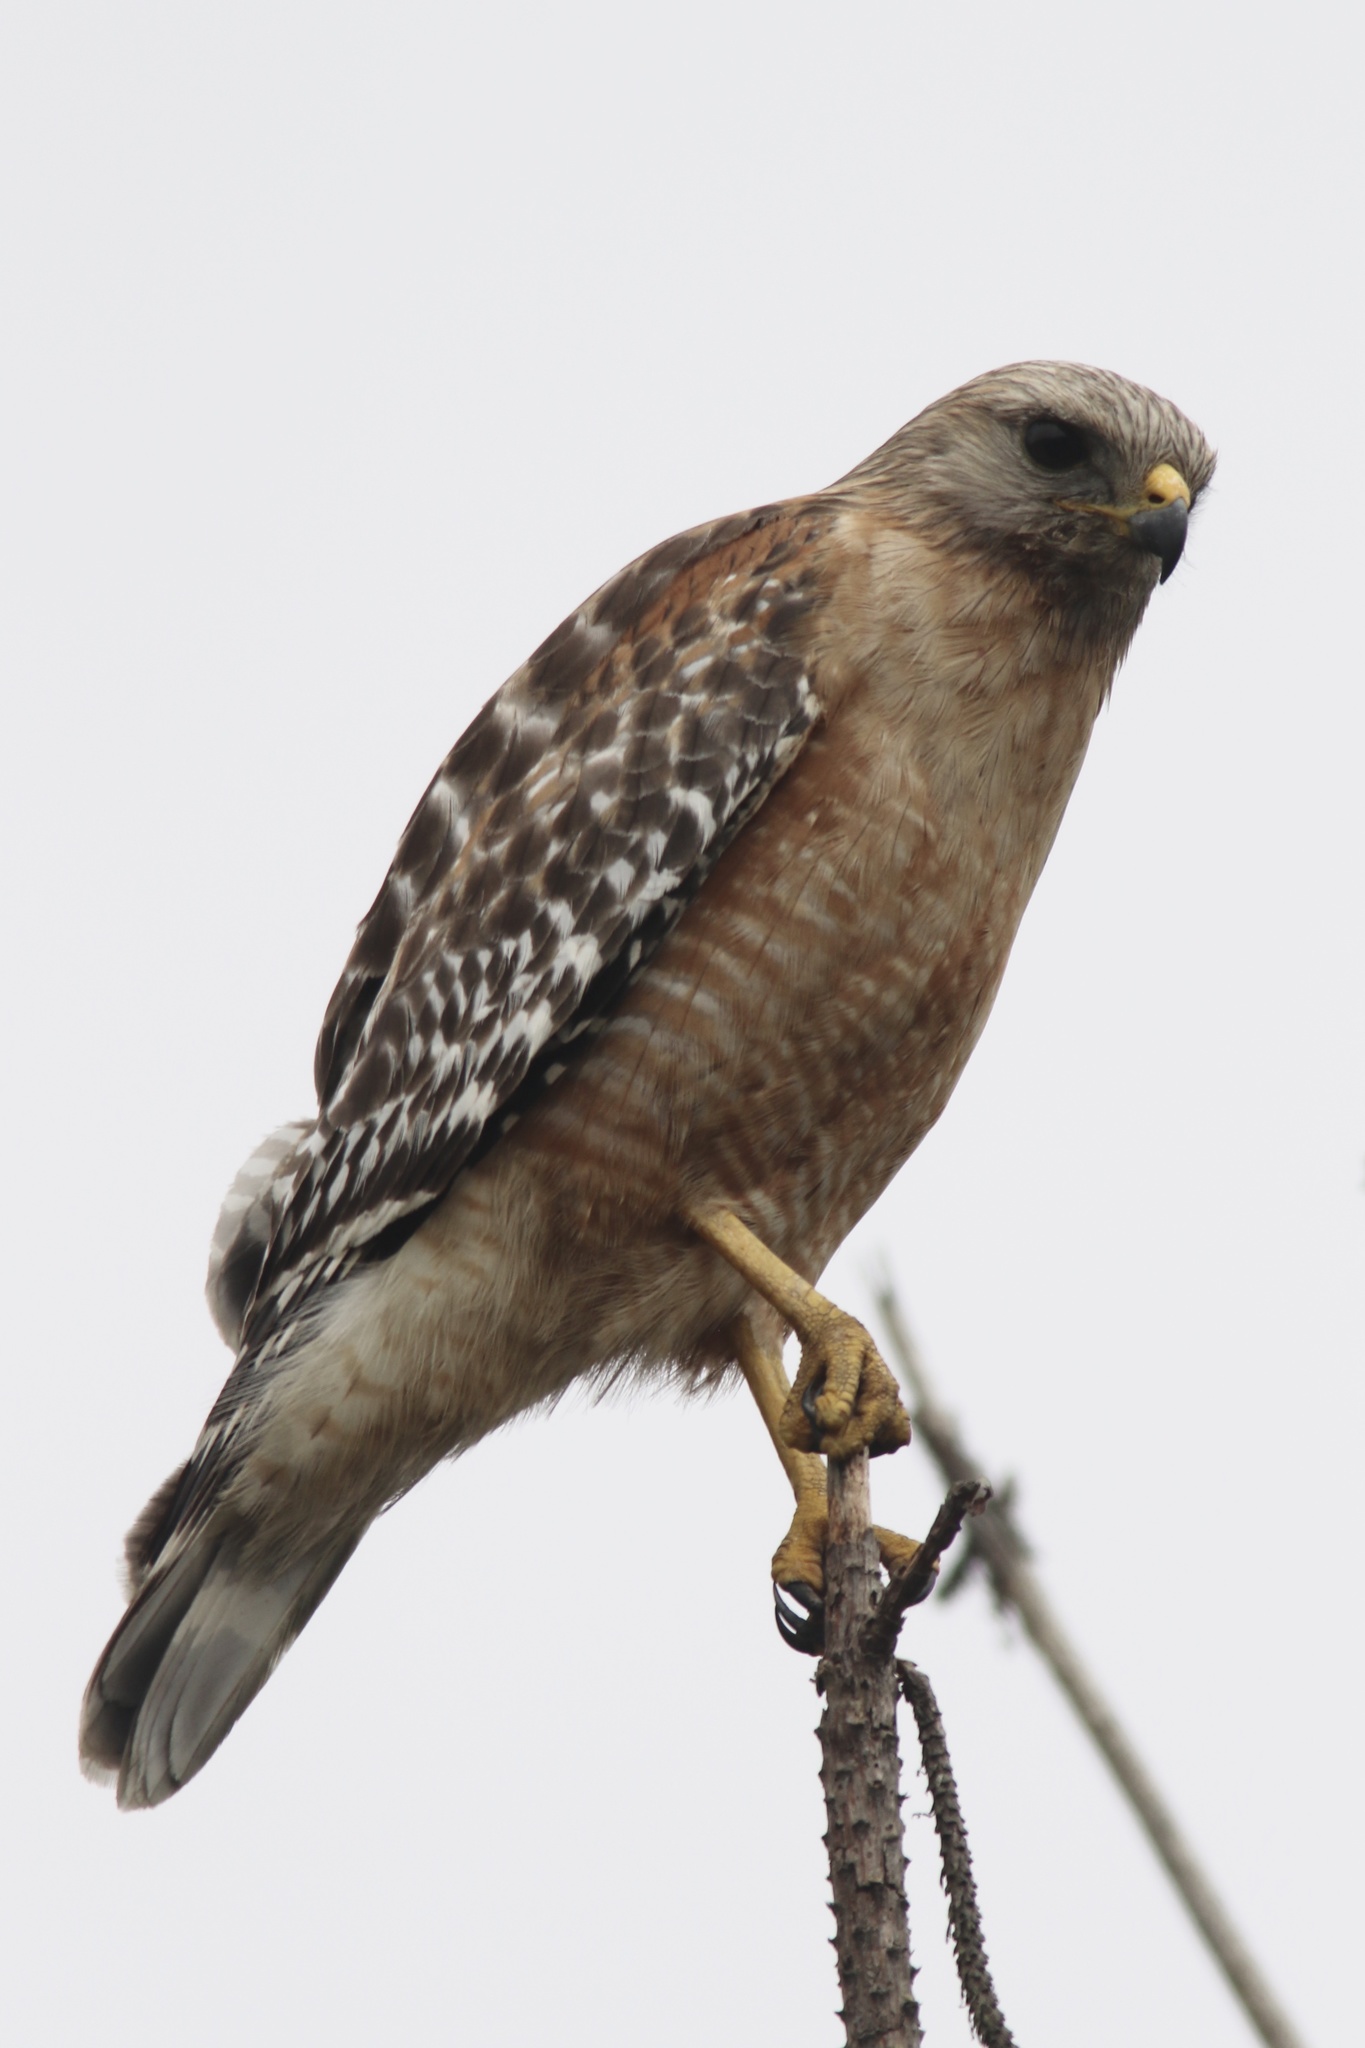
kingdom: Animalia
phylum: Chordata
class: Aves
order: Accipitriformes
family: Accipitridae
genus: Buteo
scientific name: Buteo lineatus
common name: Red-shouldered hawk
